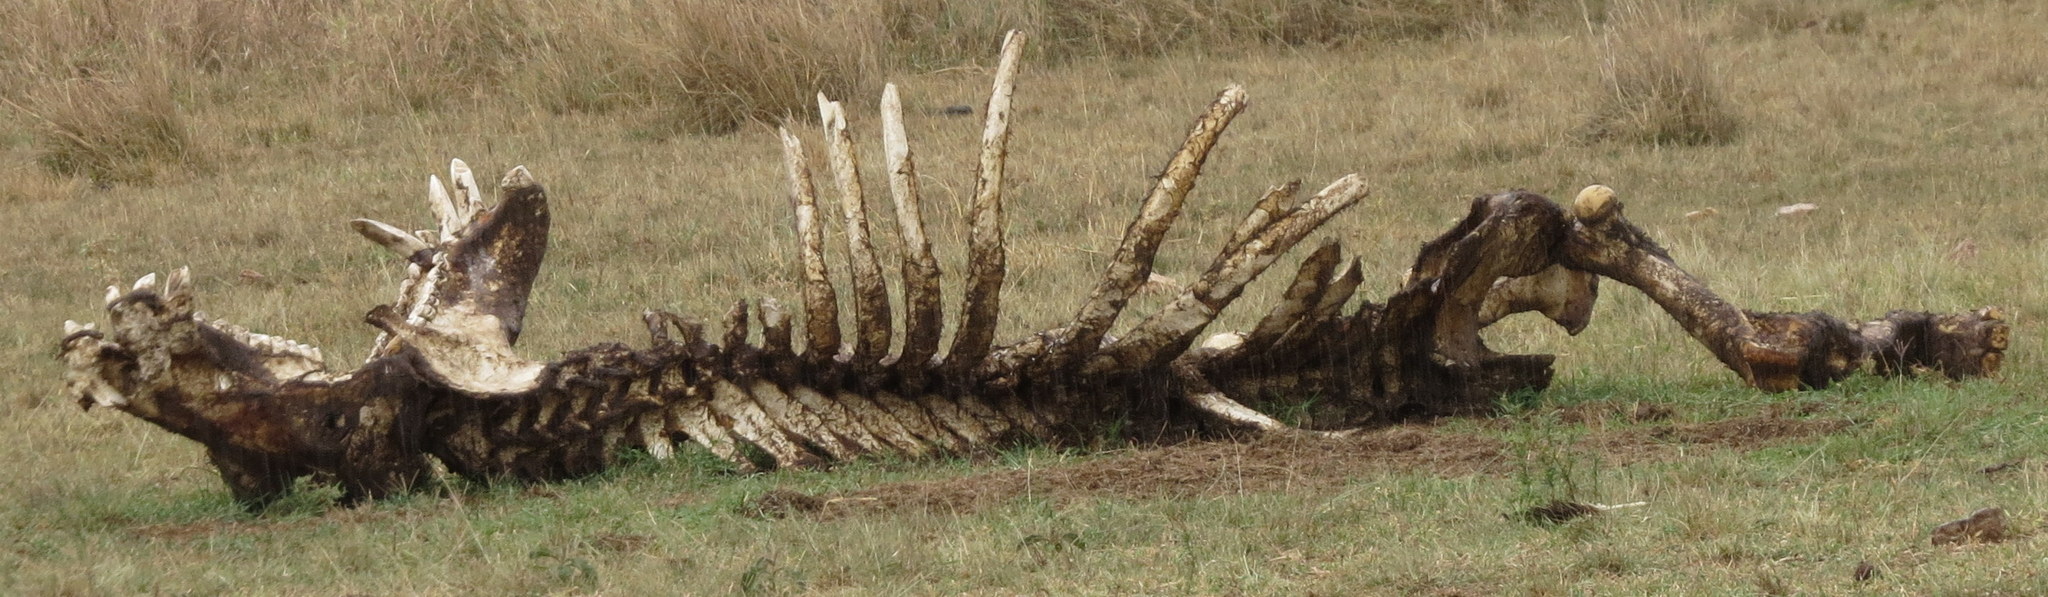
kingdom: Animalia
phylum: Chordata
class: Mammalia
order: Artiodactyla
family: Hippopotamidae
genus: Hippopotamus
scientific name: Hippopotamus amphibius
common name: Common hippopotamus
